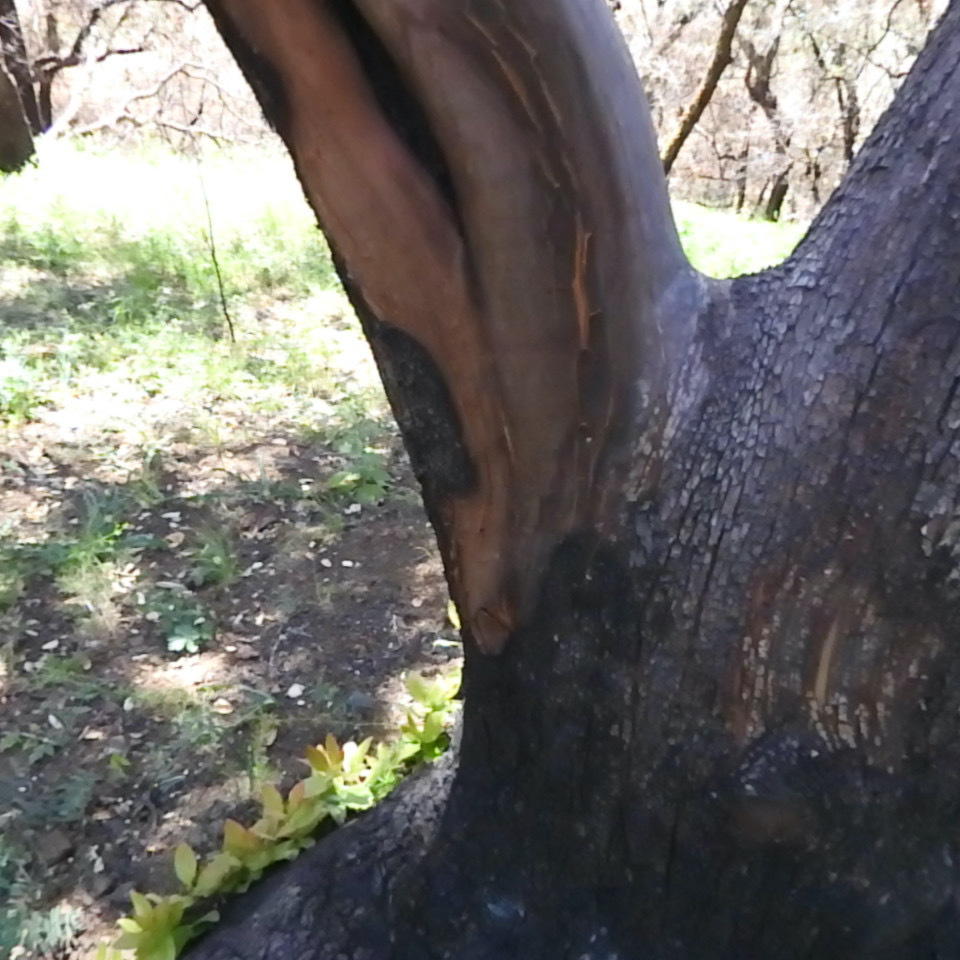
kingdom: Plantae
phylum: Tracheophyta
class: Magnoliopsida
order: Ericales
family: Ericaceae
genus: Arbutus
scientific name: Arbutus menziesii
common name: Pacific madrone
